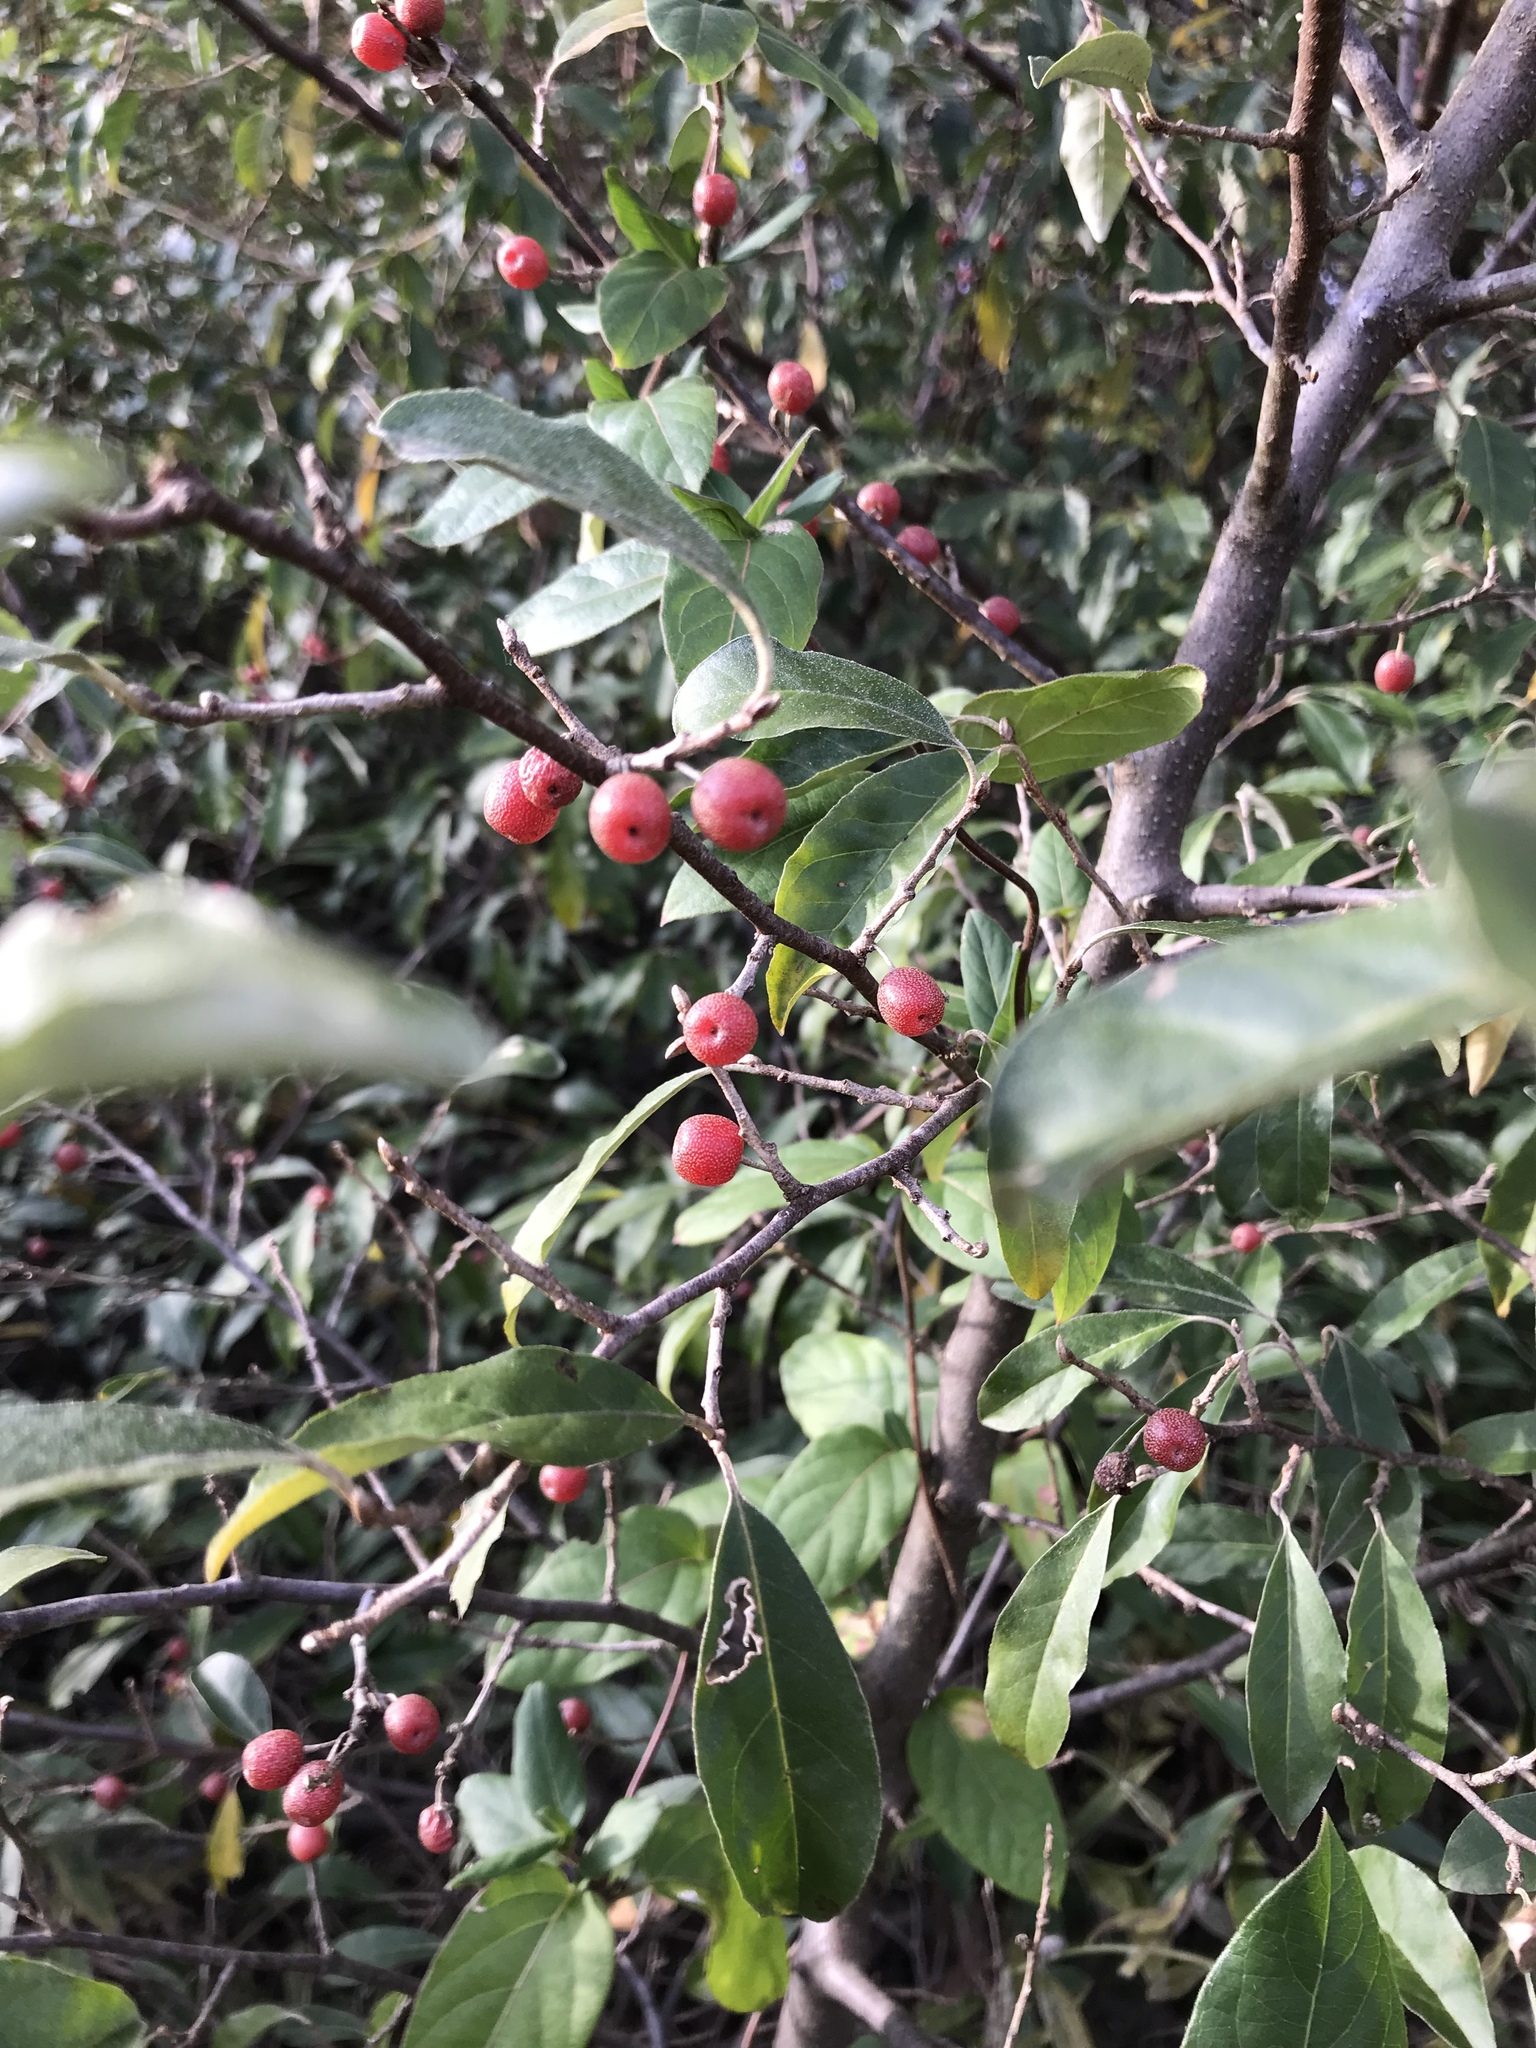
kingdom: Plantae
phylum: Tracheophyta
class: Magnoliopsida
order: Rosales
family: Elaeagnaceae
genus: Elaeagnus
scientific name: Elaeagnus umbellata
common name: Autumn olive
